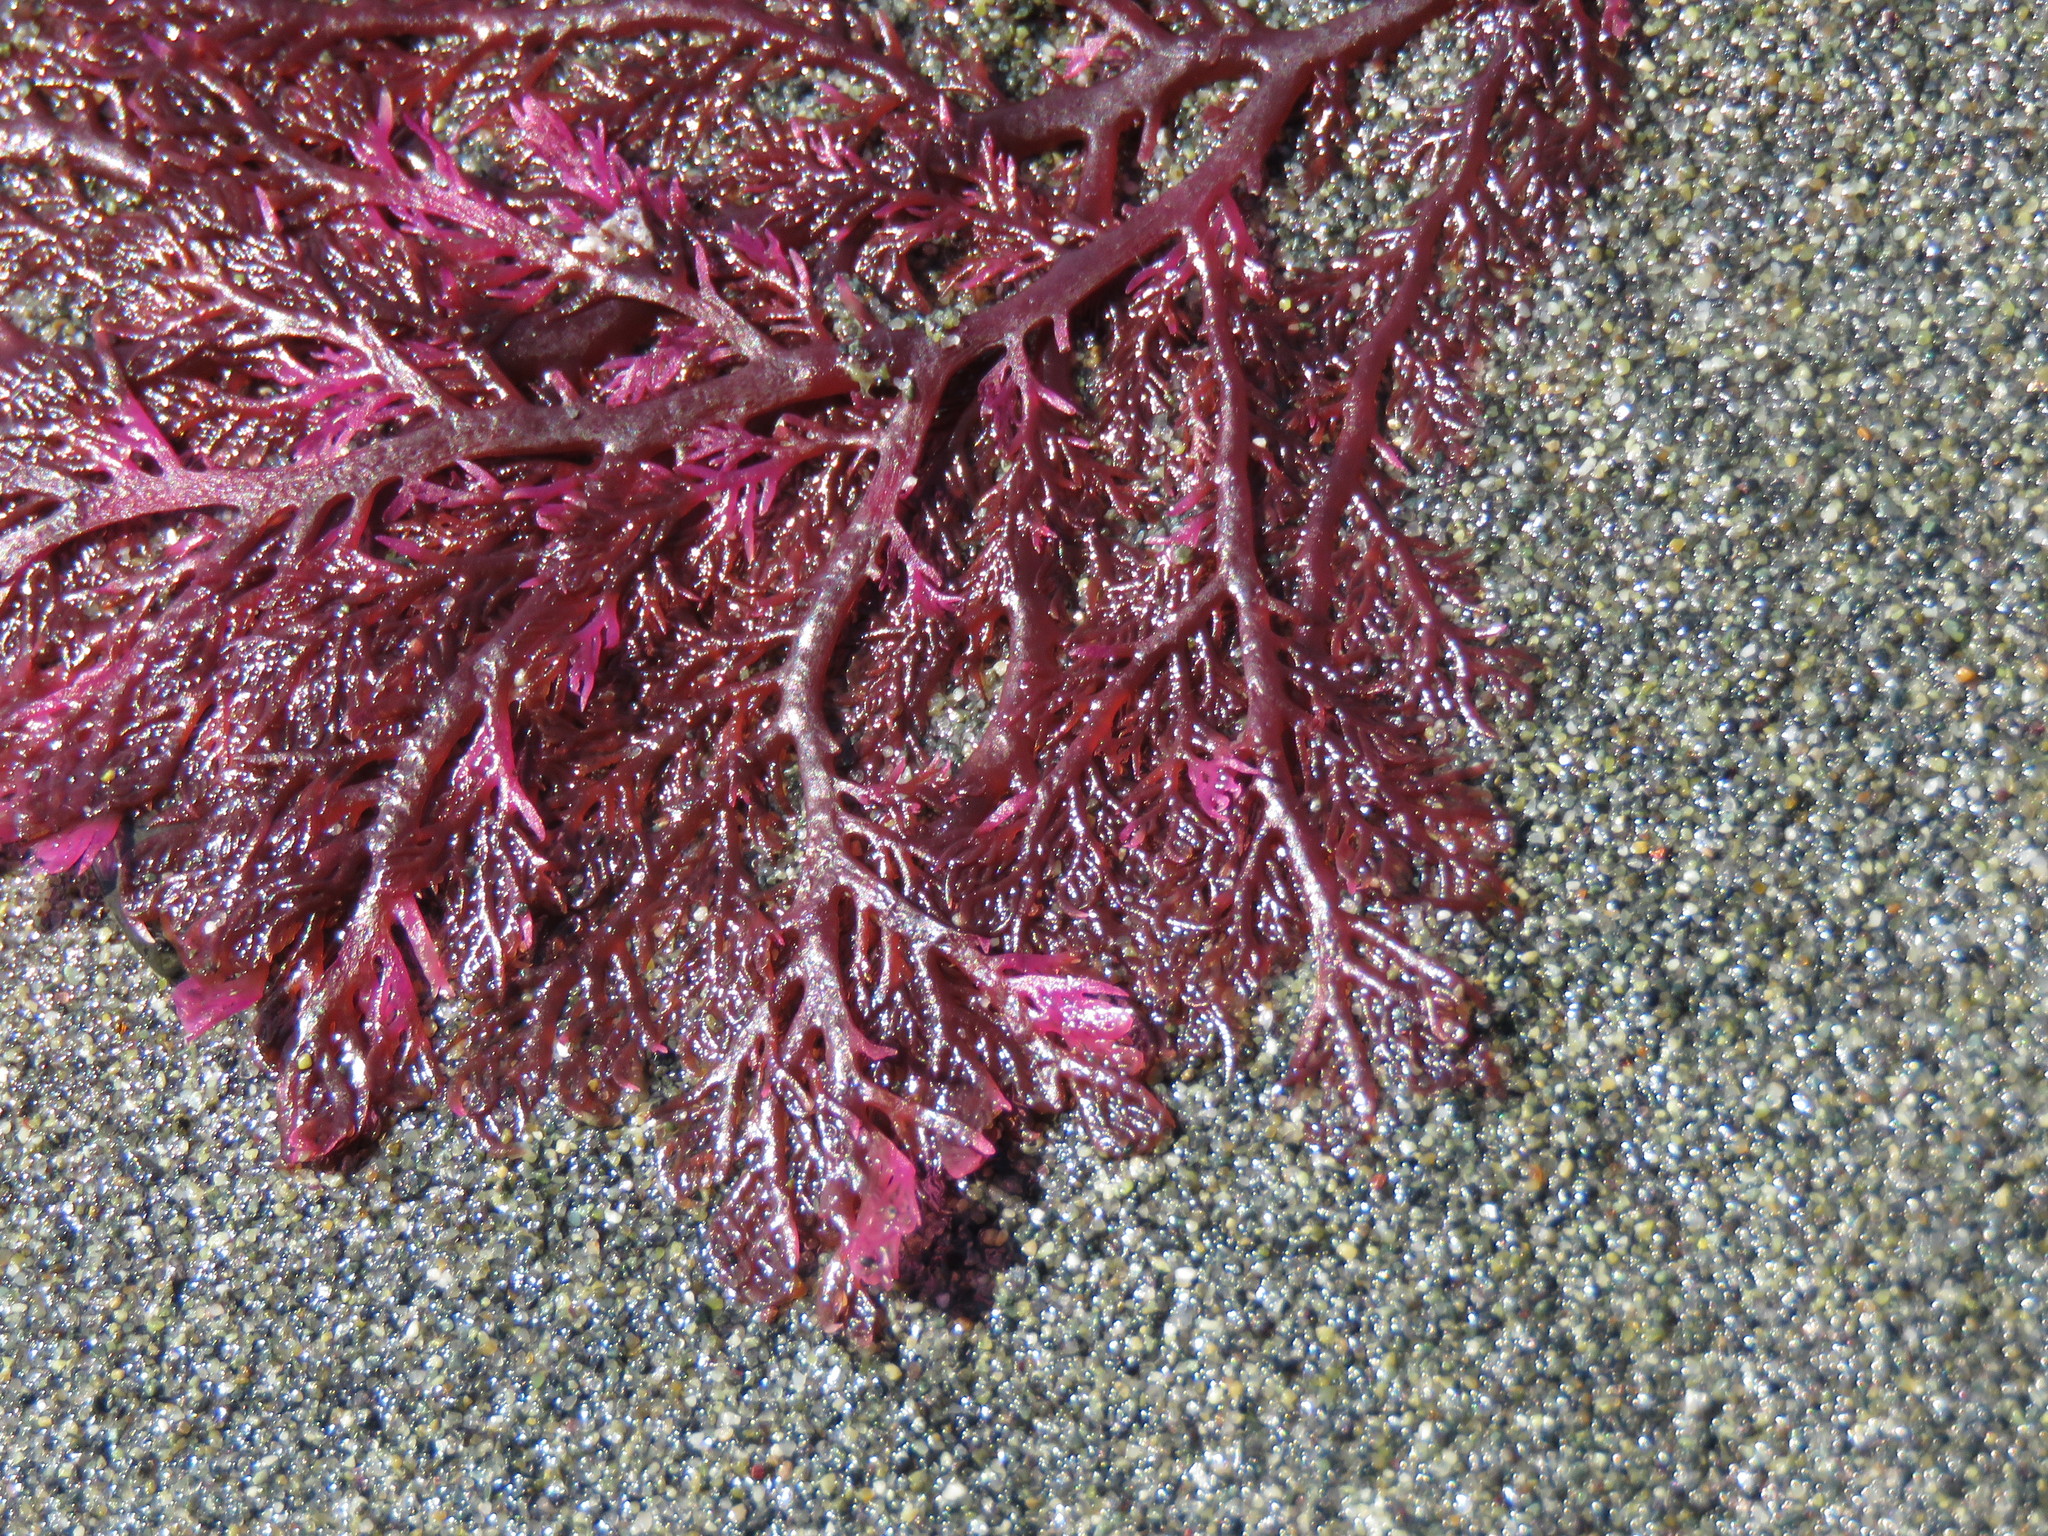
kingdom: Plantae
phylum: Rhodophyta
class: Florideophyceae
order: Plocamiales
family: Plocamiaceae
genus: Plocamium
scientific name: Plocamium cartilagineum
